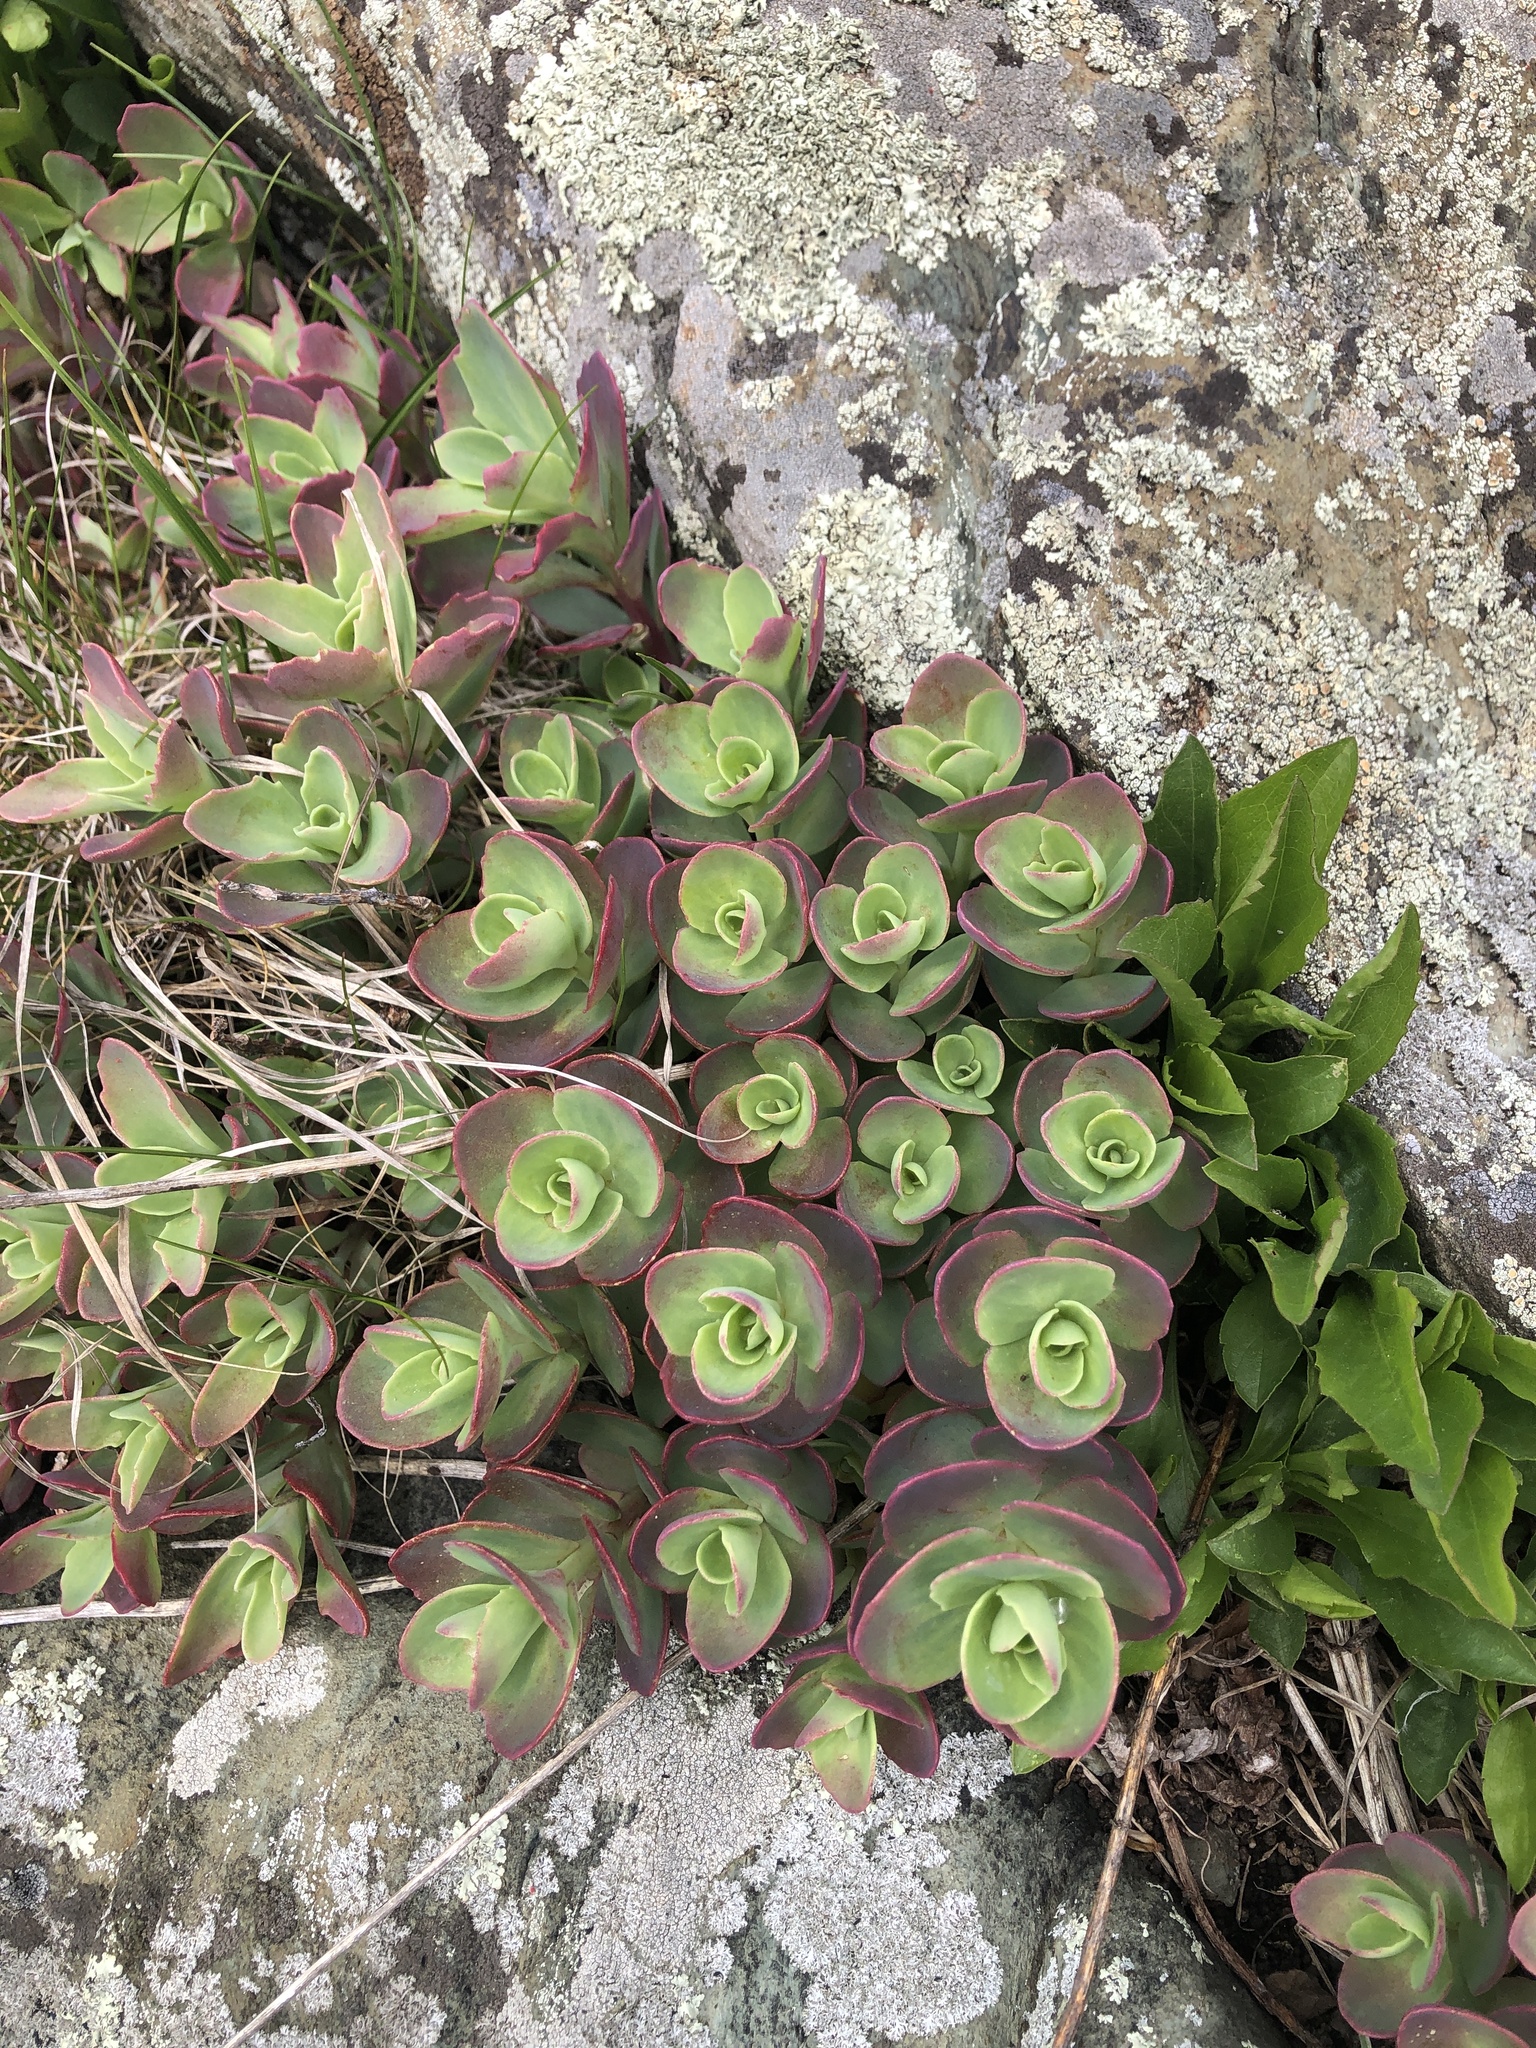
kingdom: Plantae
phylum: Tracheophyta
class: Magnoliopsida
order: Saxifragales
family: Crassulaceae
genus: Hylotelephium
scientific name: Hylotelephium telephioides
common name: Allegheny stonecrop
